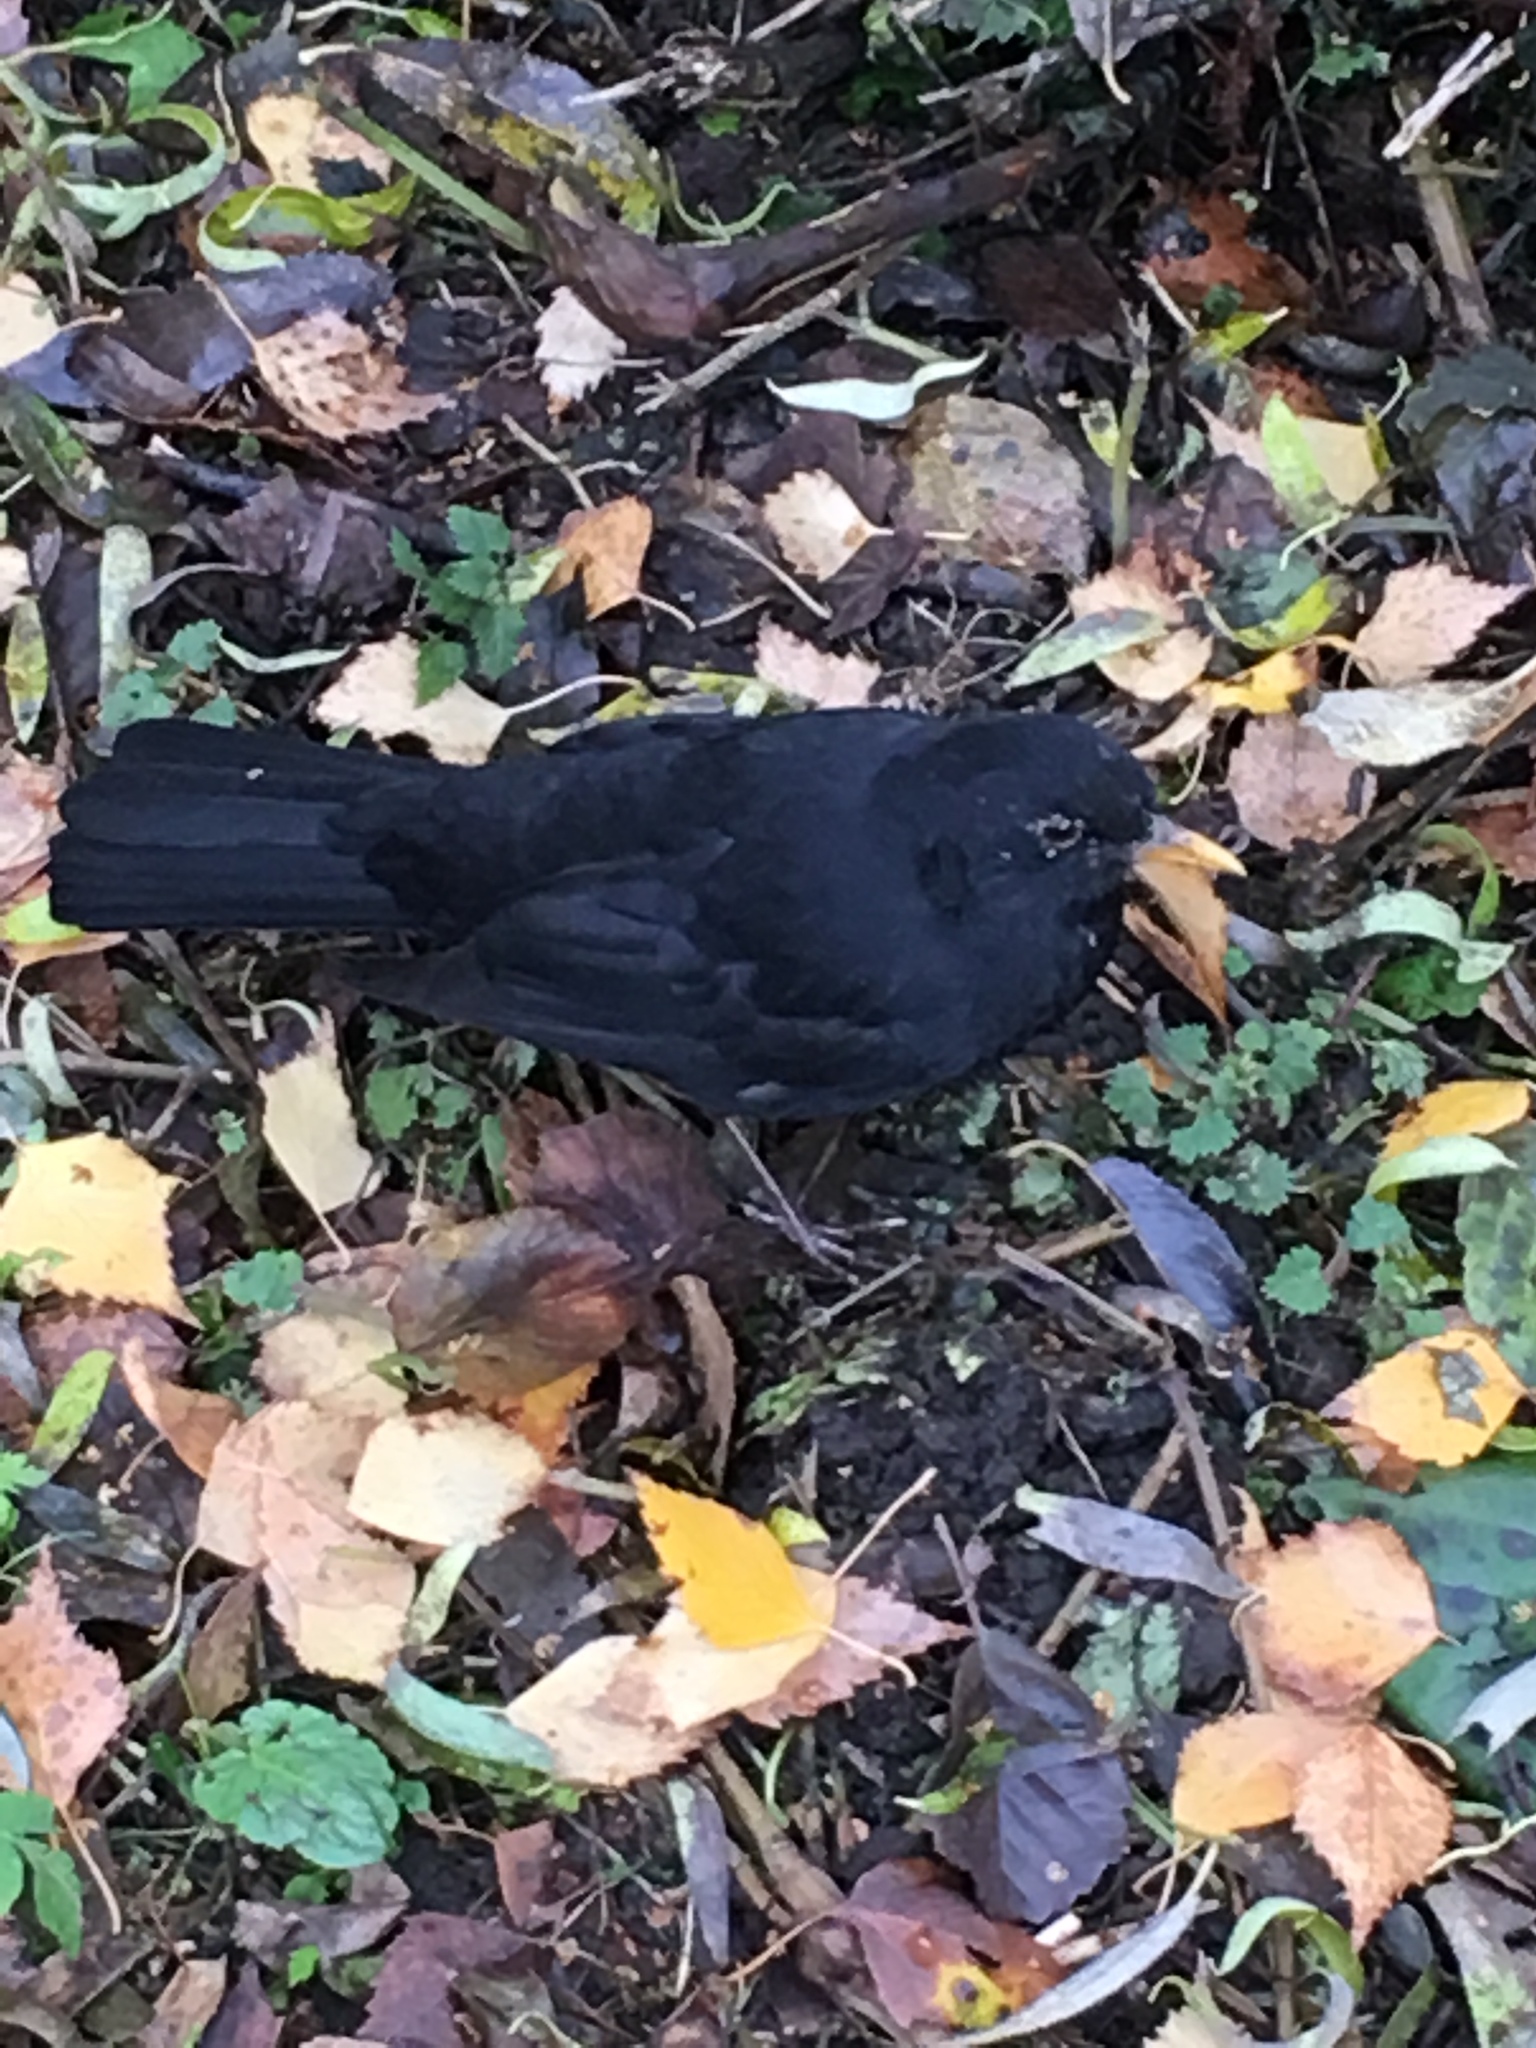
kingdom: Animalia
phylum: Chordata
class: Aves
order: Passeriformes
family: Turdidae
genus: Turdus
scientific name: Turdus merula
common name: Common blackbird
